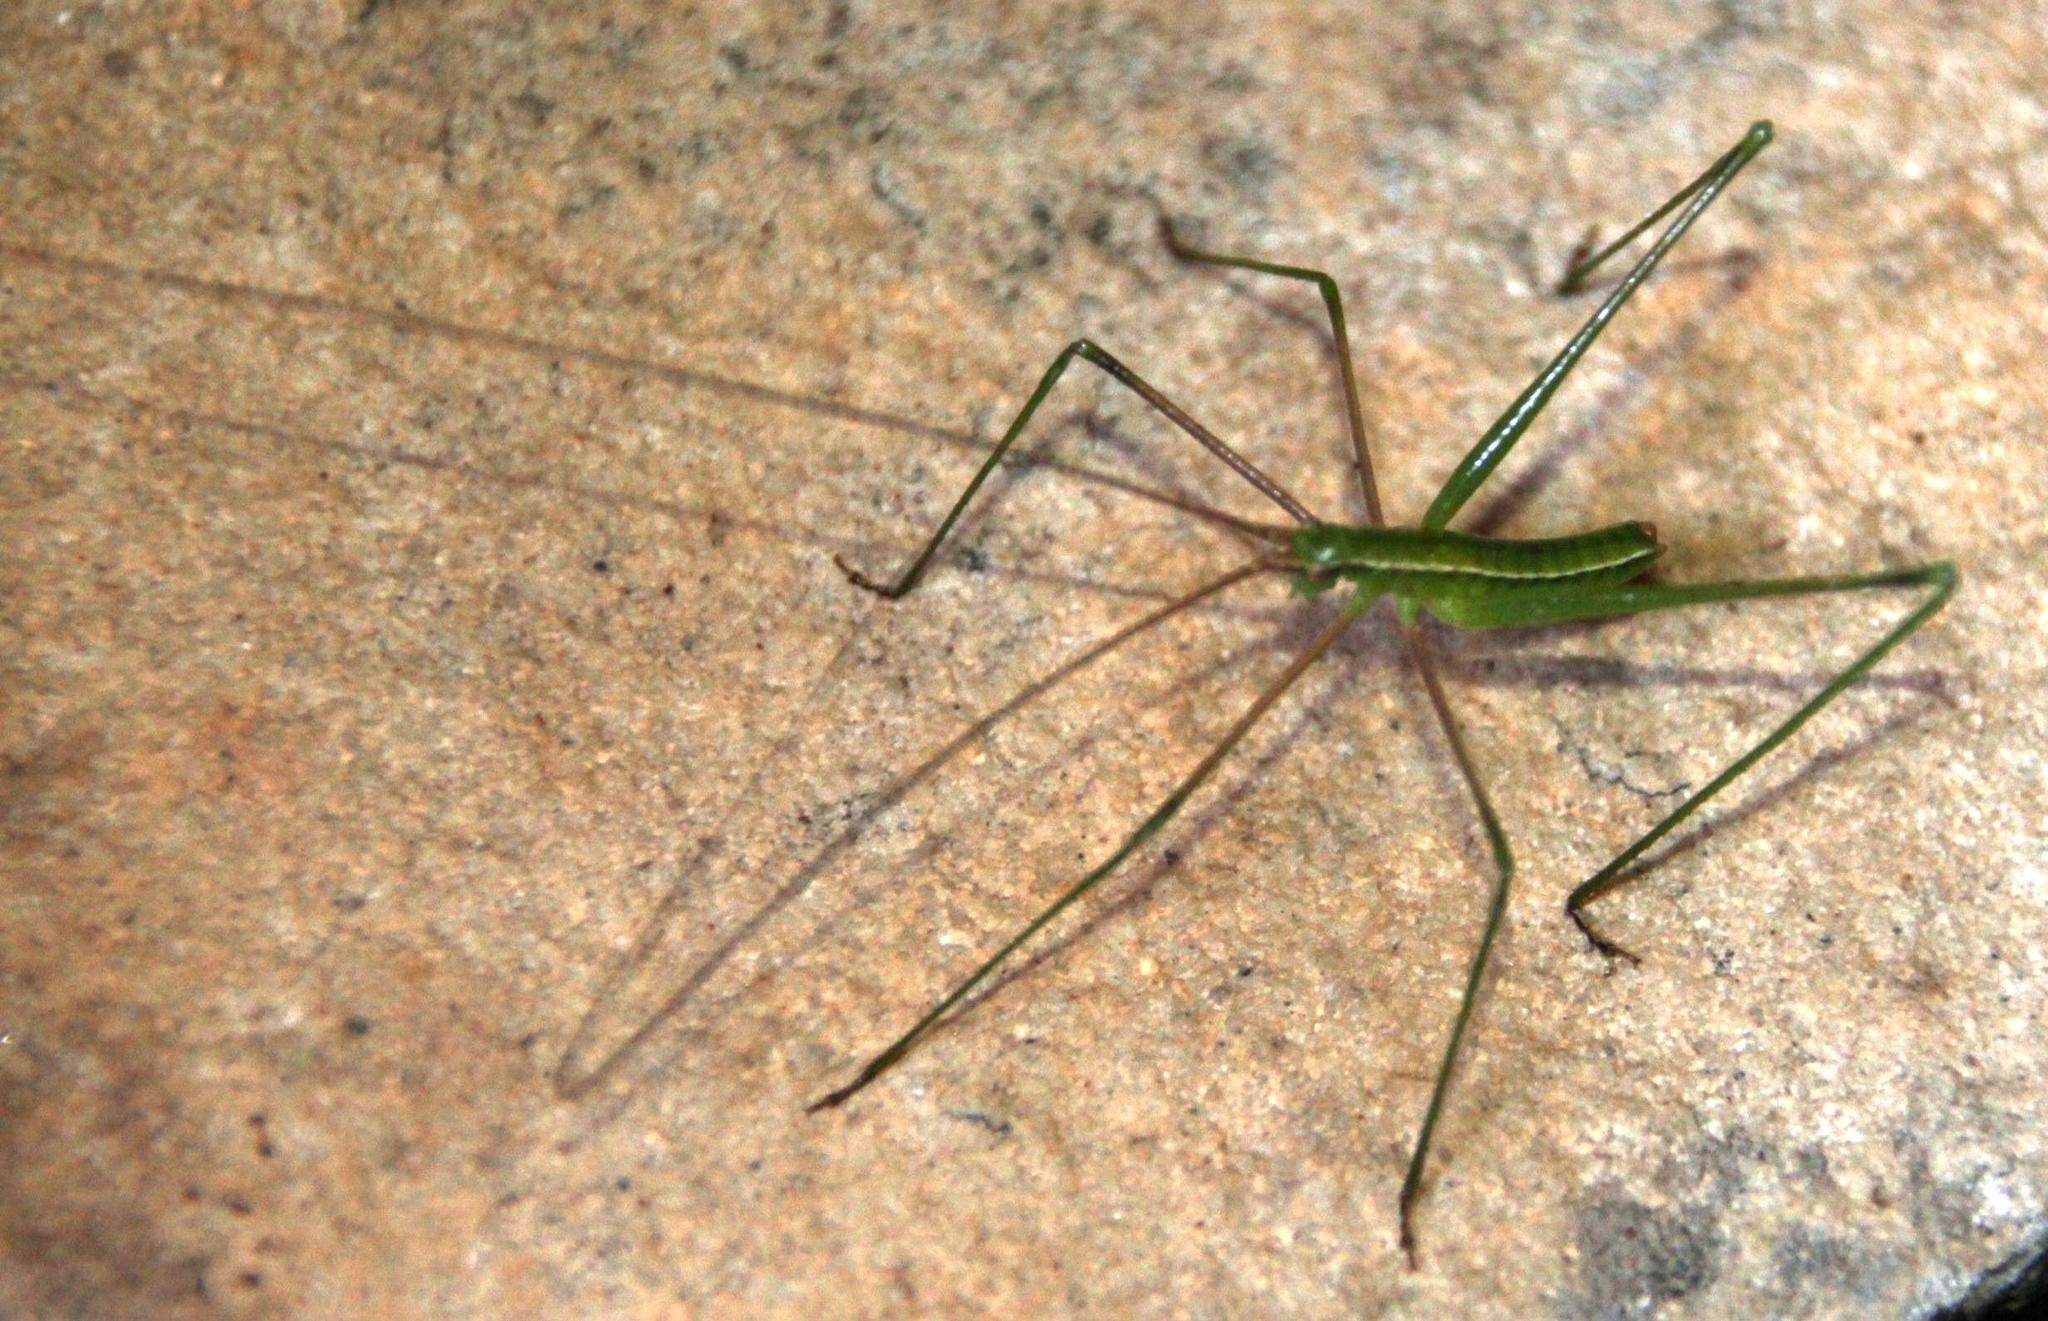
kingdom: Animalia
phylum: Arthropoda
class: Insecta
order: Orthoptera
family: Tettigoniidae
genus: Brinckiella
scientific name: Brinckiella aptera
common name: Mute winter katydid
